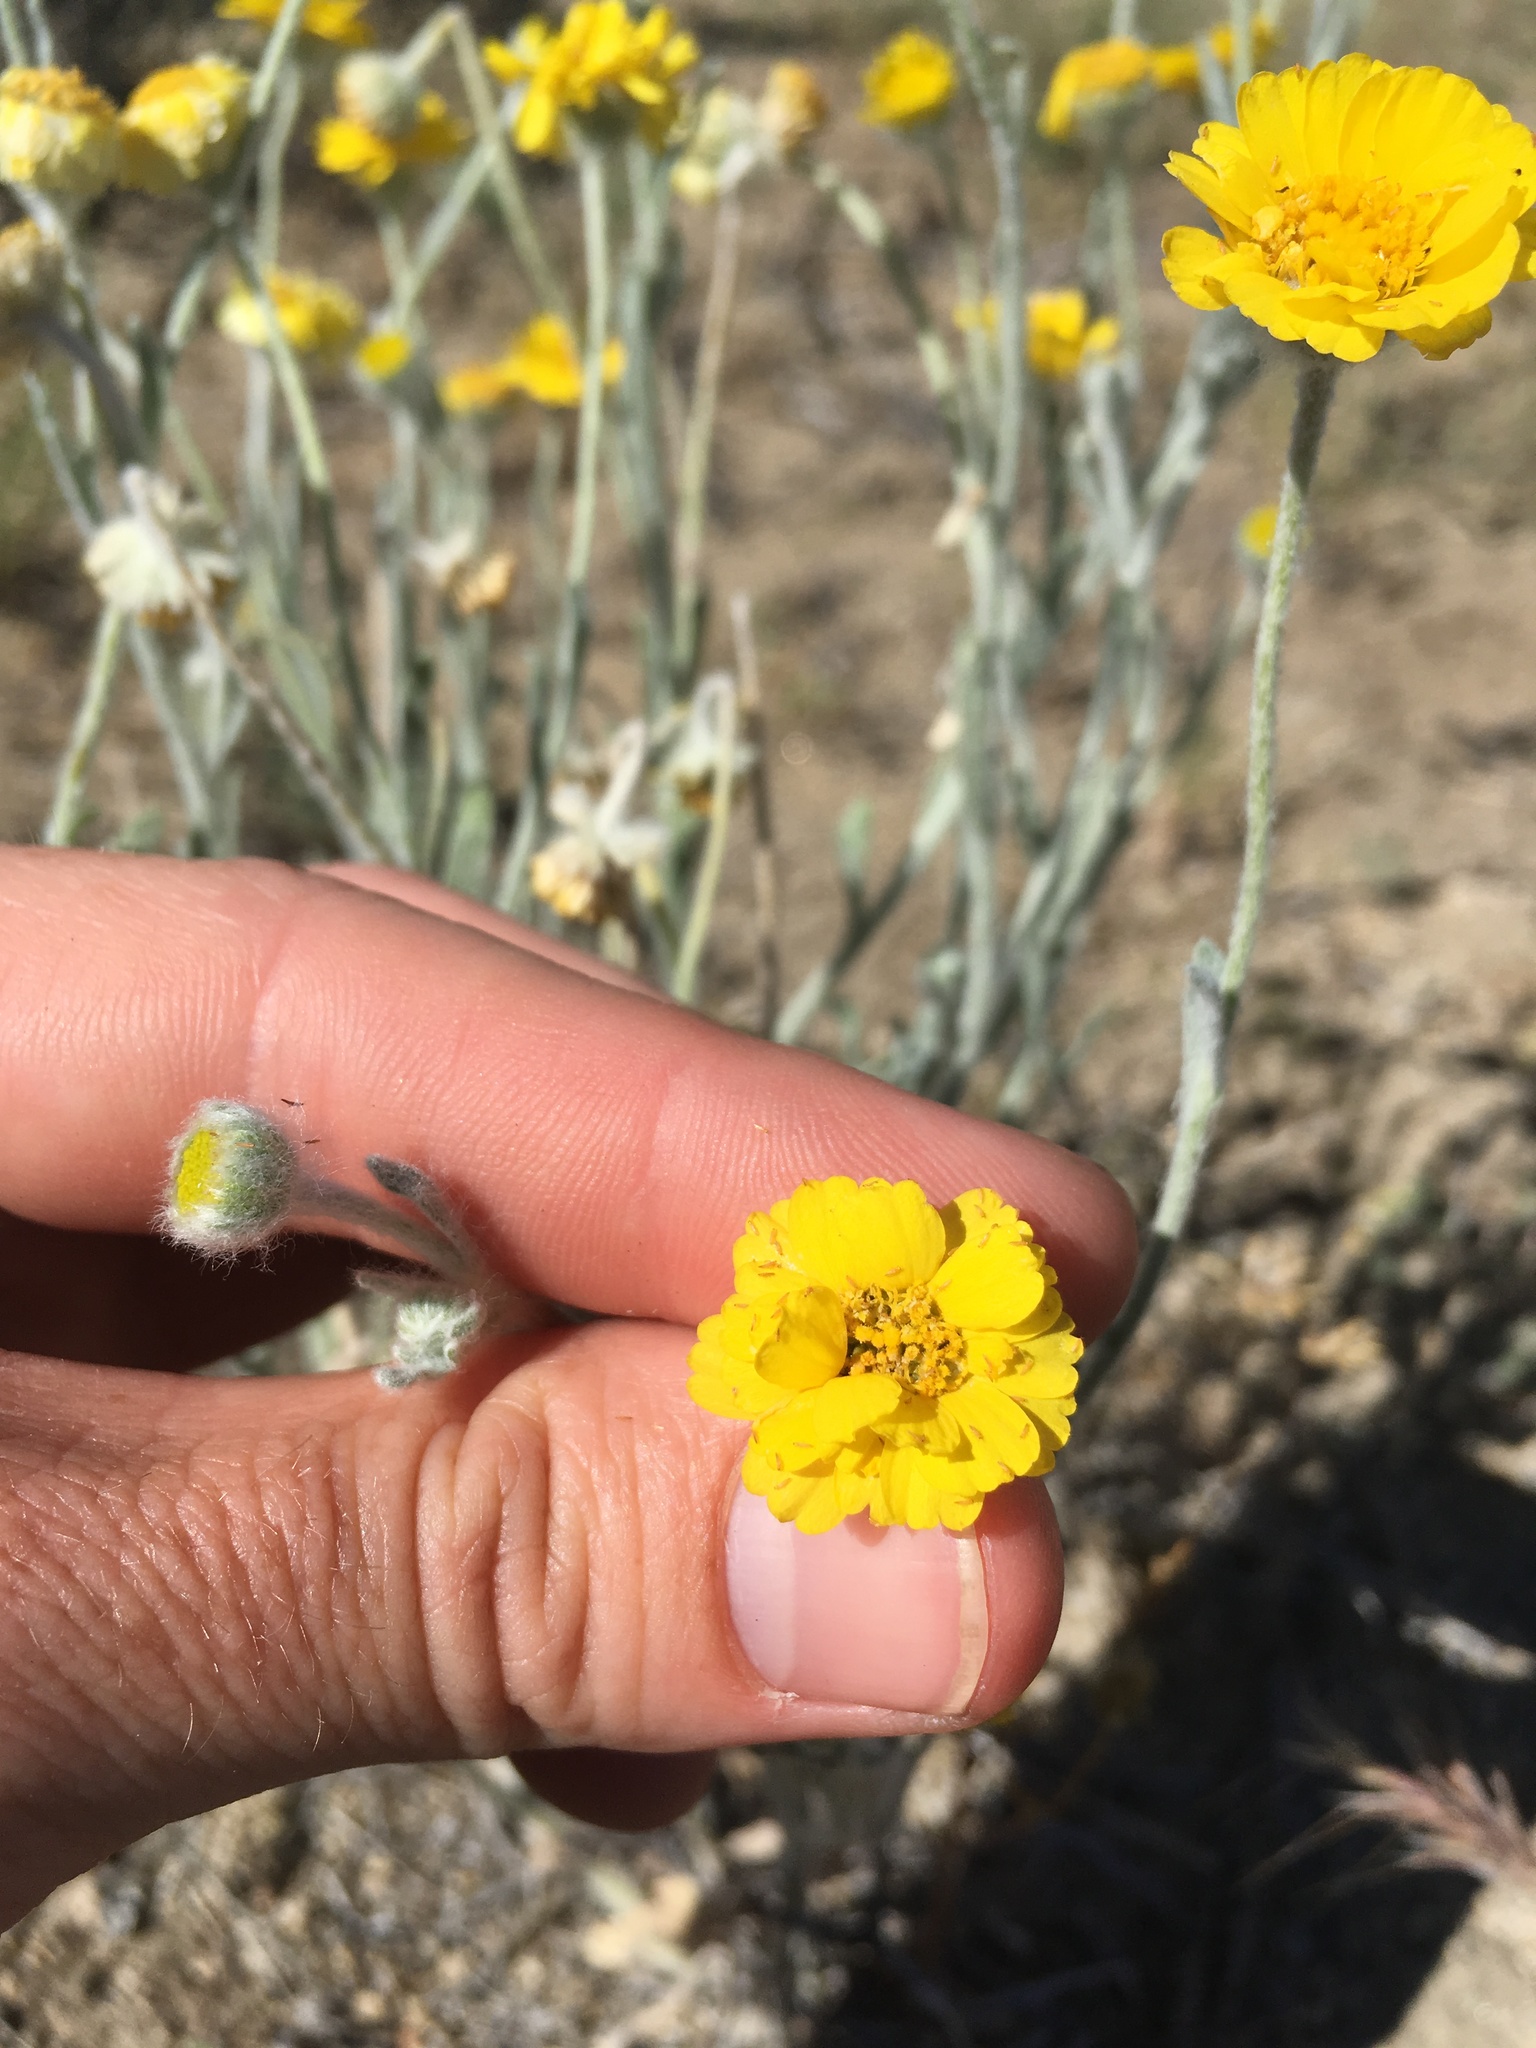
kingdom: Plantae
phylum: Tracheophyta
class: Magnoliopsida
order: Asterales
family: Asteraceae
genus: Baileya
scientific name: Baileya pleniradiata
